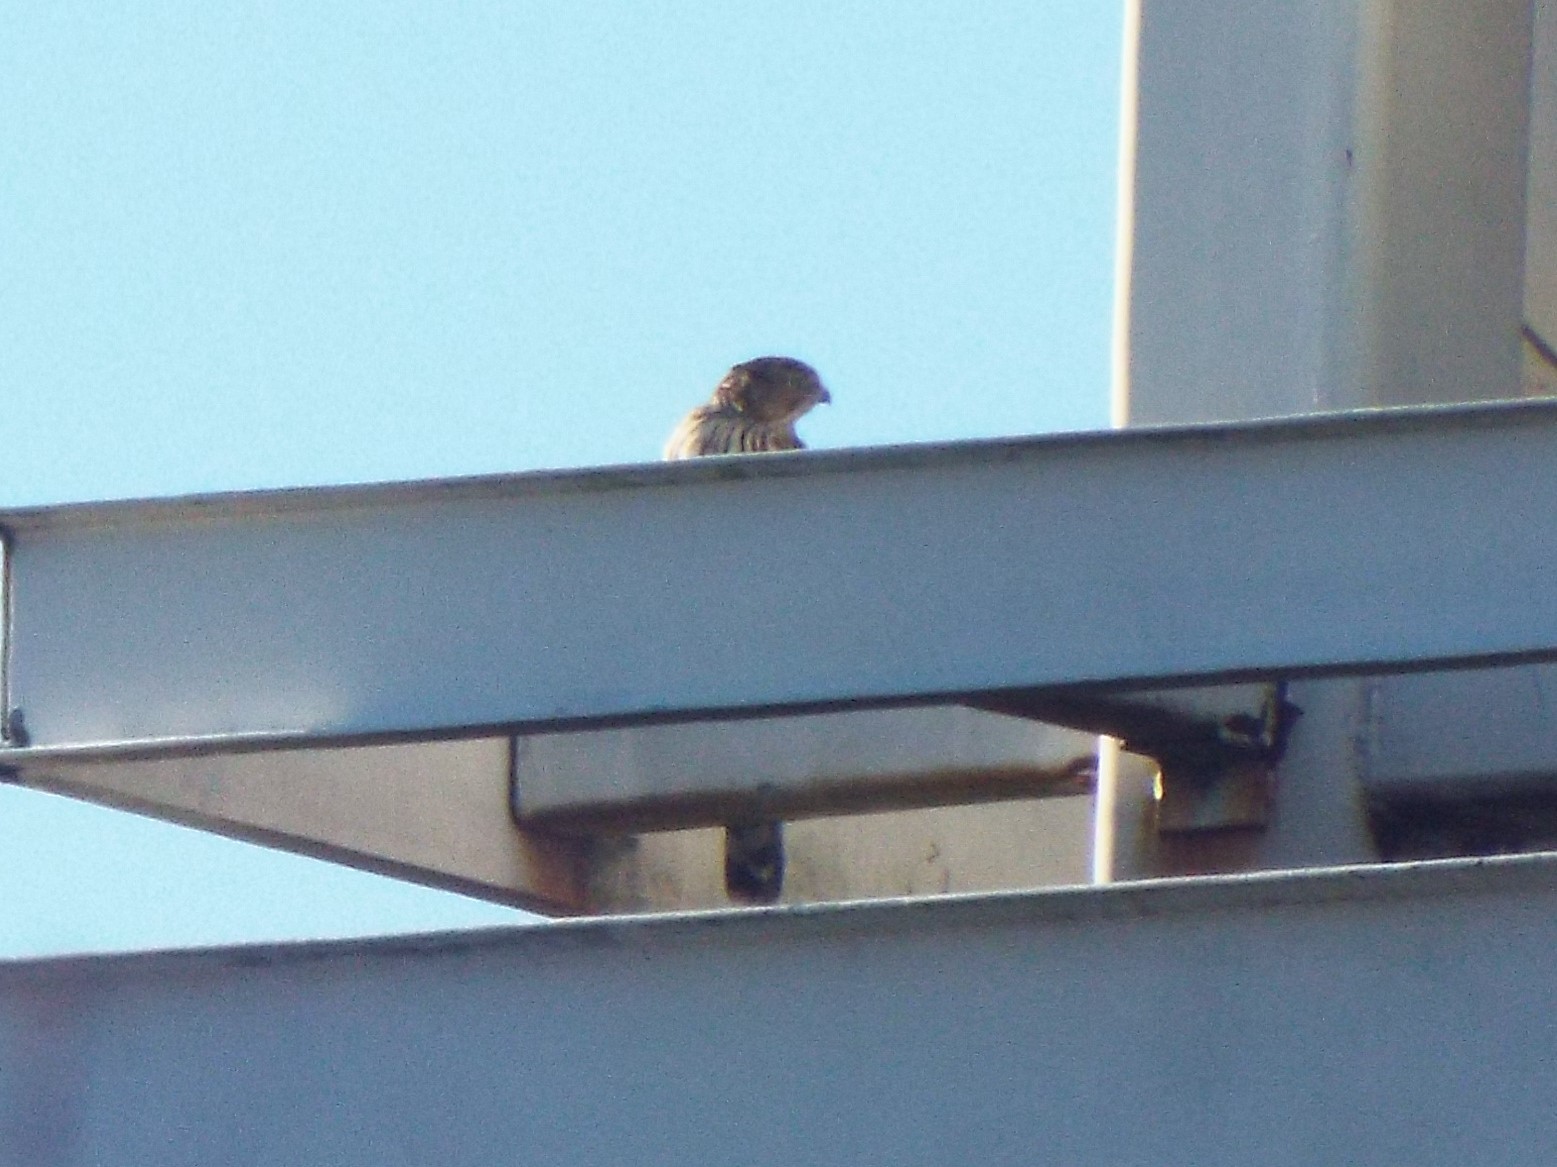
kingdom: Animalia
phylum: Chordata
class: Aves
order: Accipitriformes
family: Accipitridae
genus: Accipiter
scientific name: Accipiter cooperii
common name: Cooper's hawk
